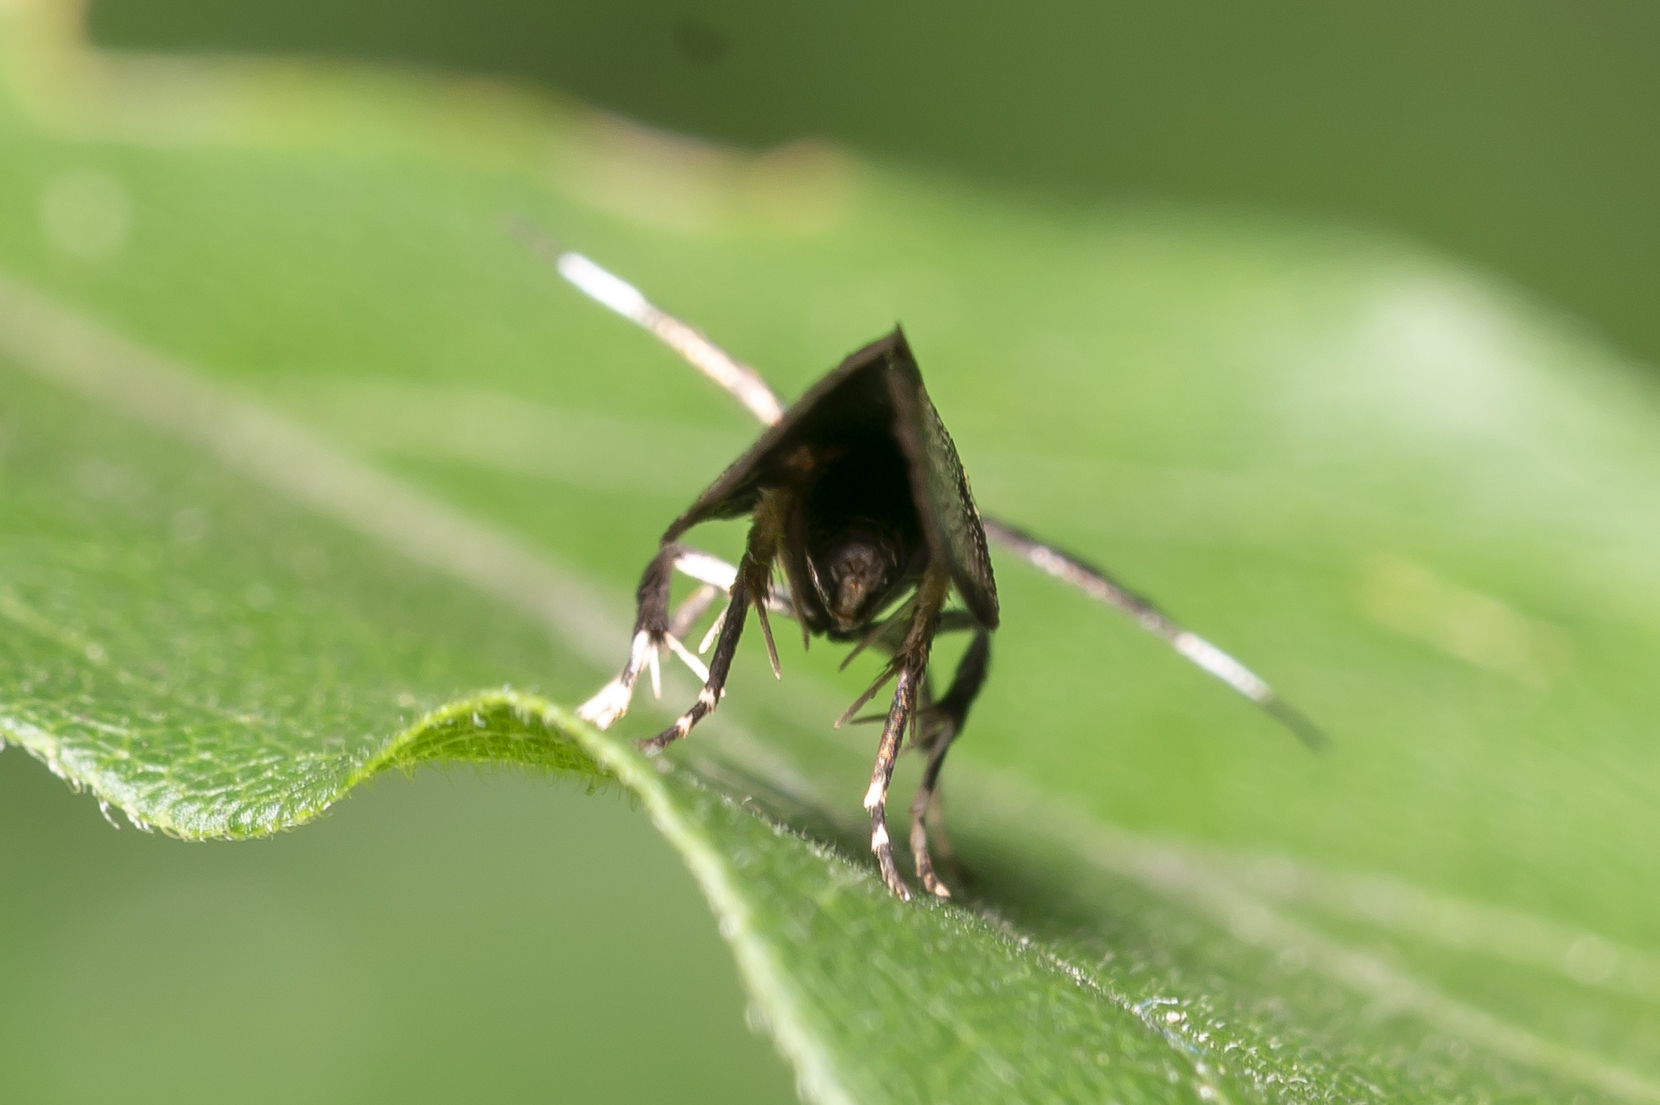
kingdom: Animalia
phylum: Arthropoda
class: Insecta
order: Lepidoptera
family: Oecophoridae
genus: Dafa
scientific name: Dafa oliviella
